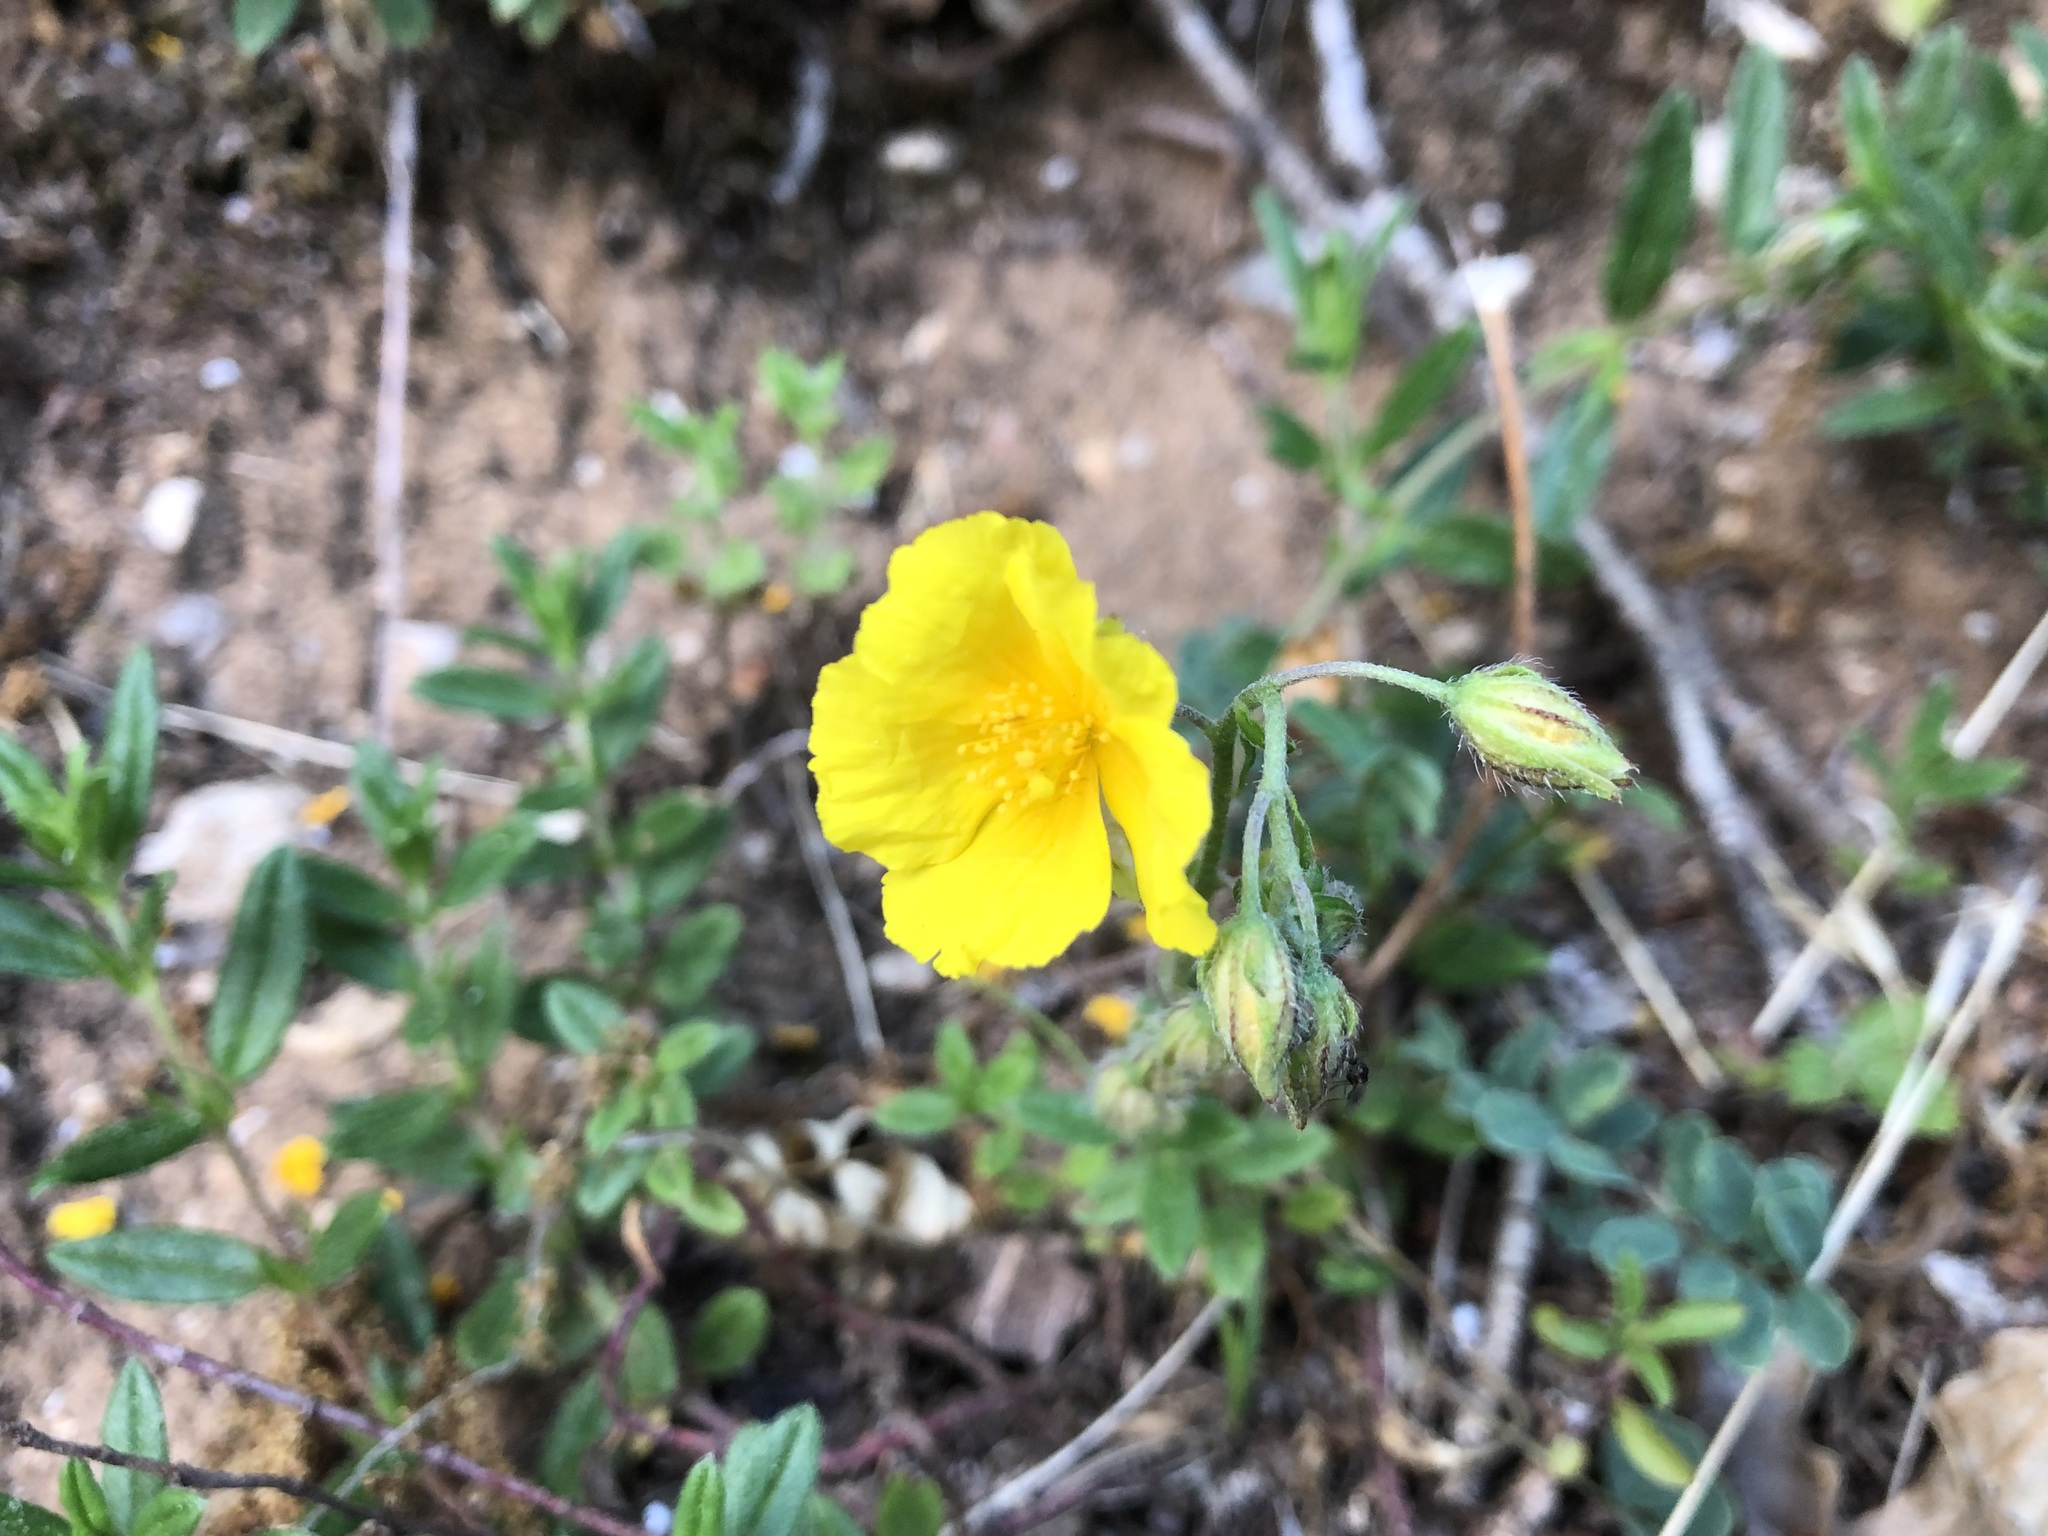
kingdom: Plantae
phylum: Tracheophyta
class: Magnoliopsida
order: Malvales
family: Cistaceae
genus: Helianthemum
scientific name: Helianthemum nummularium
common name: Common rock-rose
